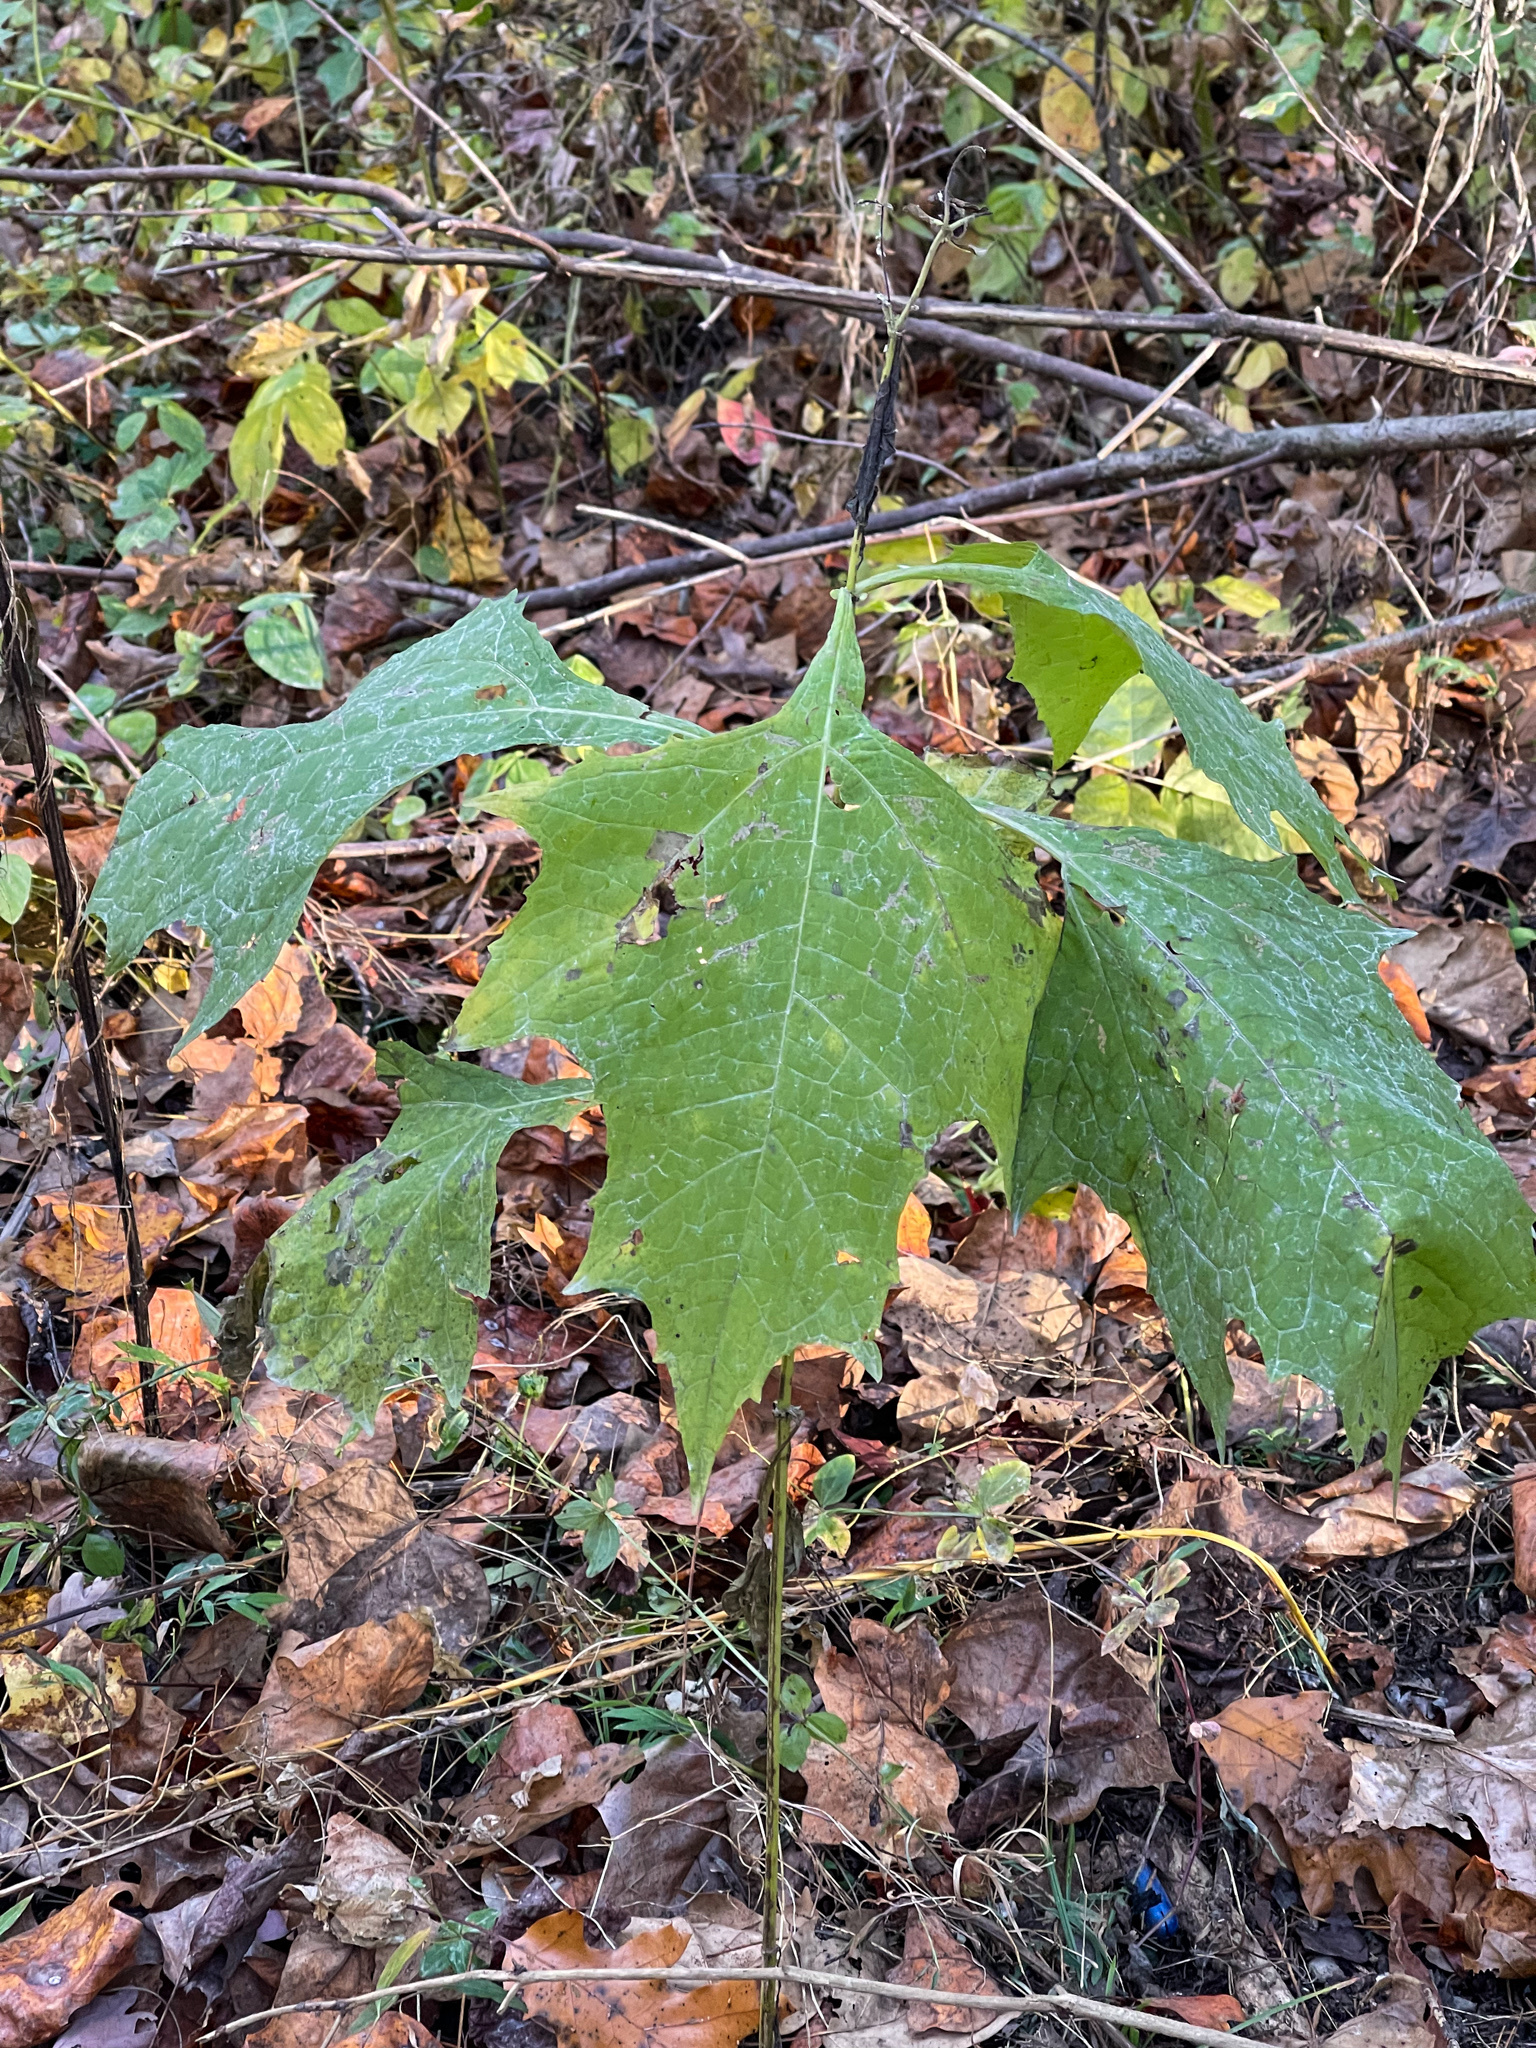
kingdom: Plantae
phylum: Tracheophyta
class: Magnoliopsida
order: Asterales
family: Asteraceae
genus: Smallanthus
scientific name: Smallanthus uvedalia
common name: Bear's-foot
